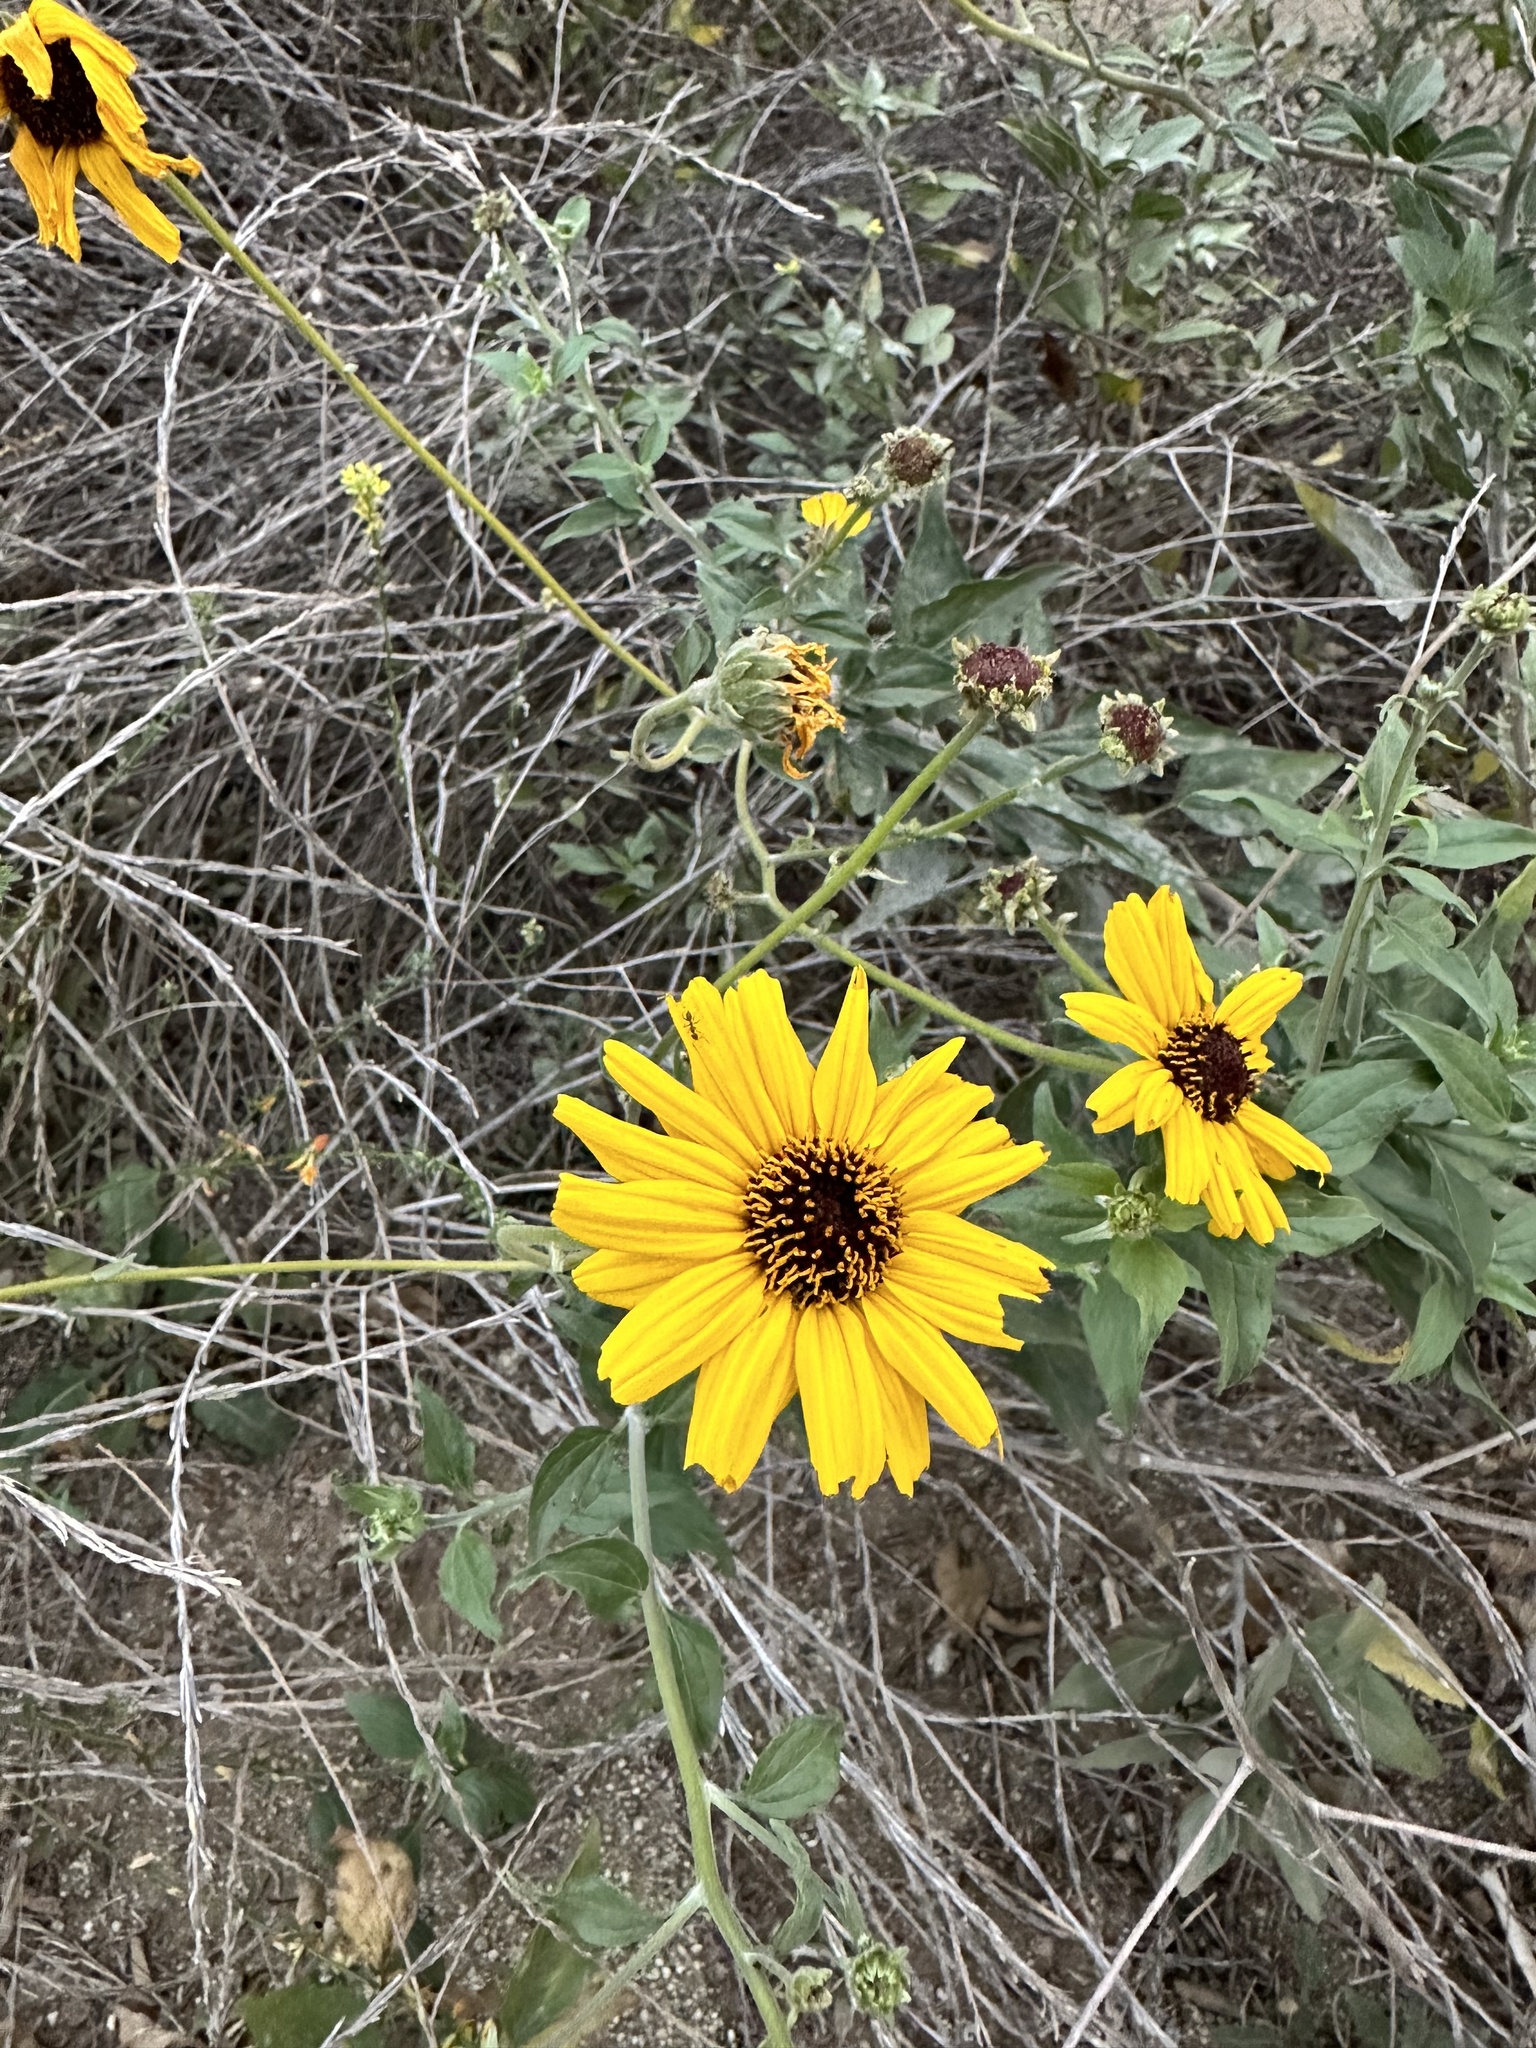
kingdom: Plantae
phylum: Tracheophyta
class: Magnoliopsida
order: Asterales
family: Asteraceae
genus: Encelia
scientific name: Encelia californica
